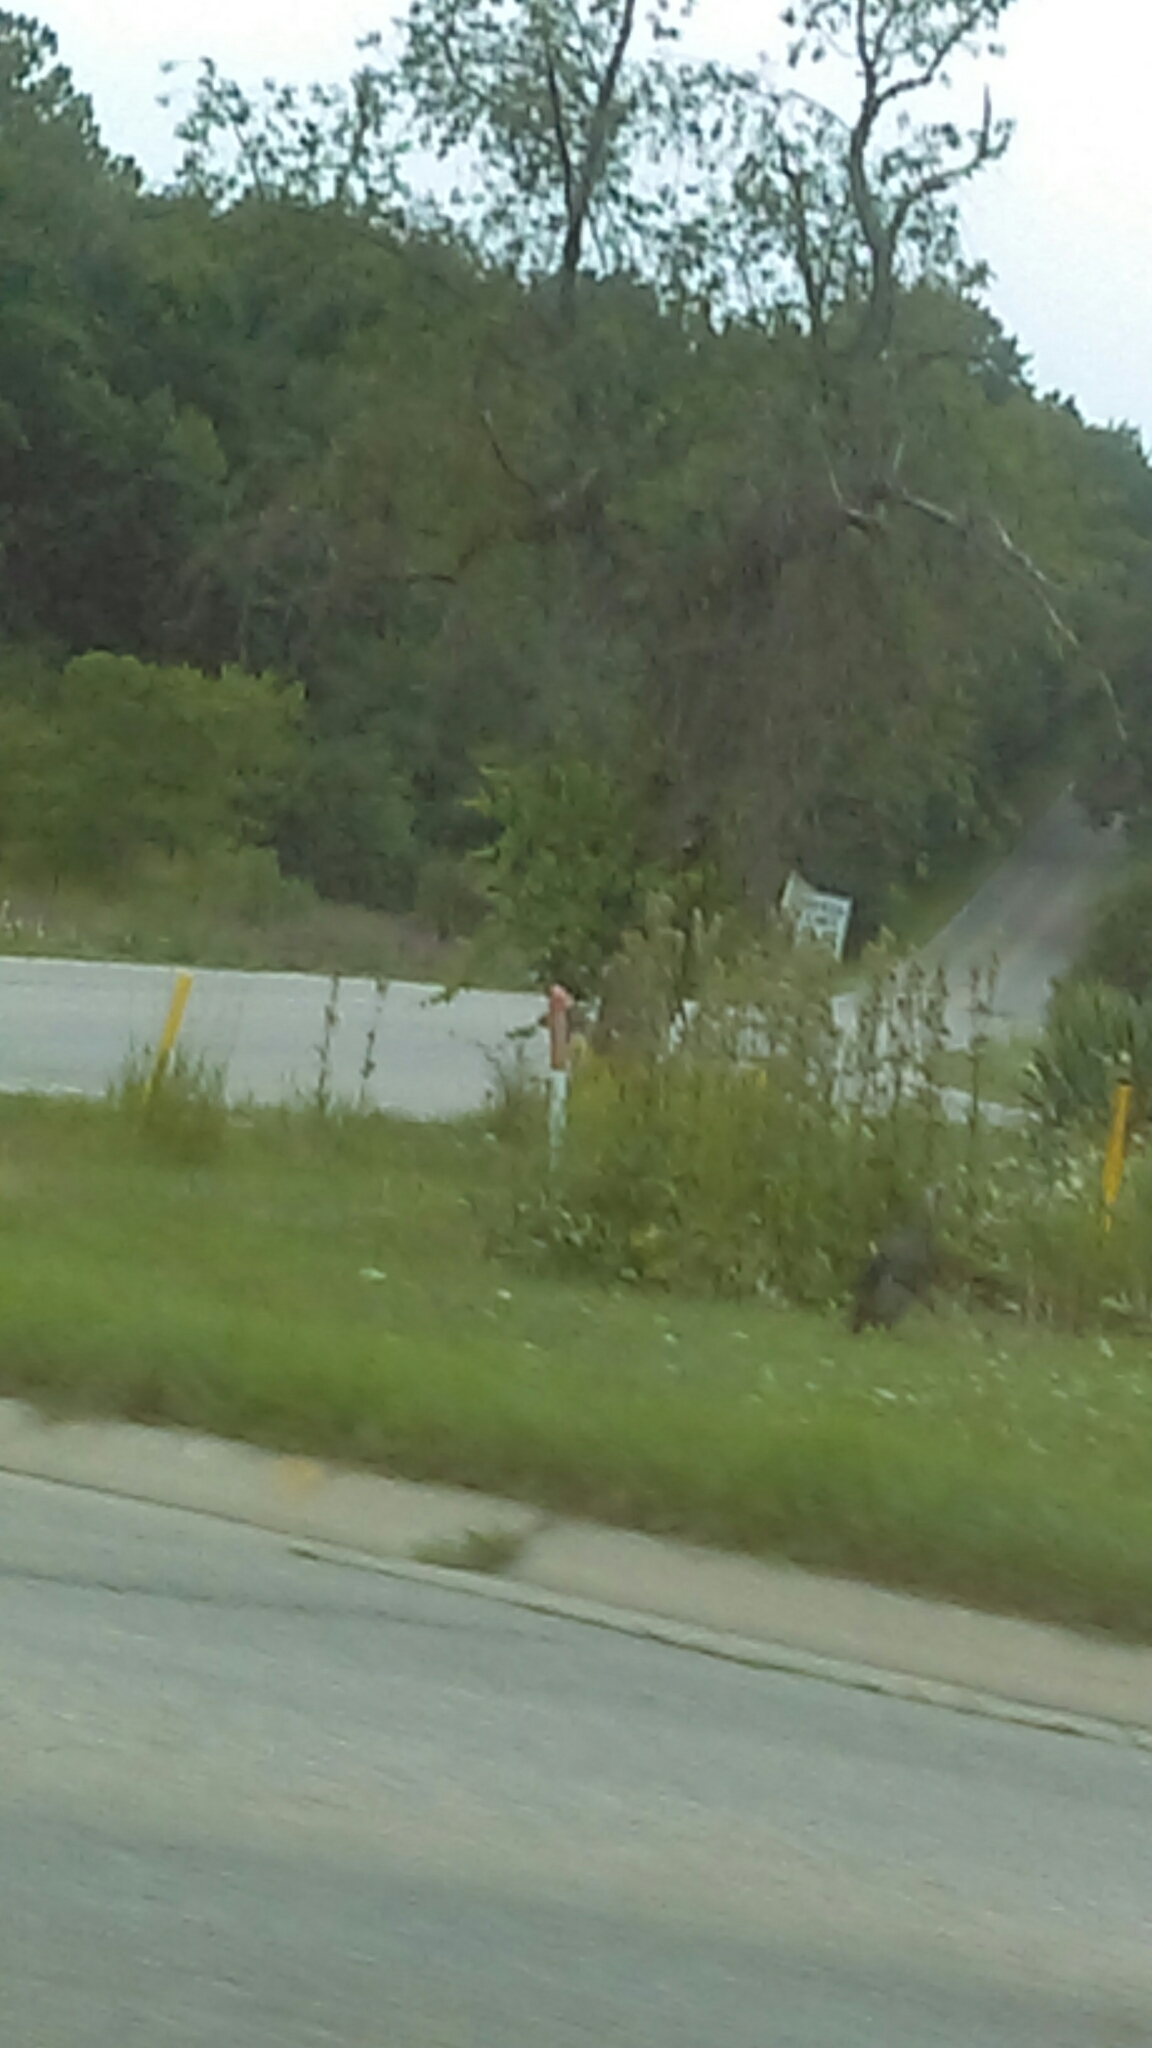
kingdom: Animalia
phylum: Chordata
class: Aves
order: Galliformes
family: Phasianidae
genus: Meleagris
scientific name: Meleagris gallopavo
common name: Wild turkey
